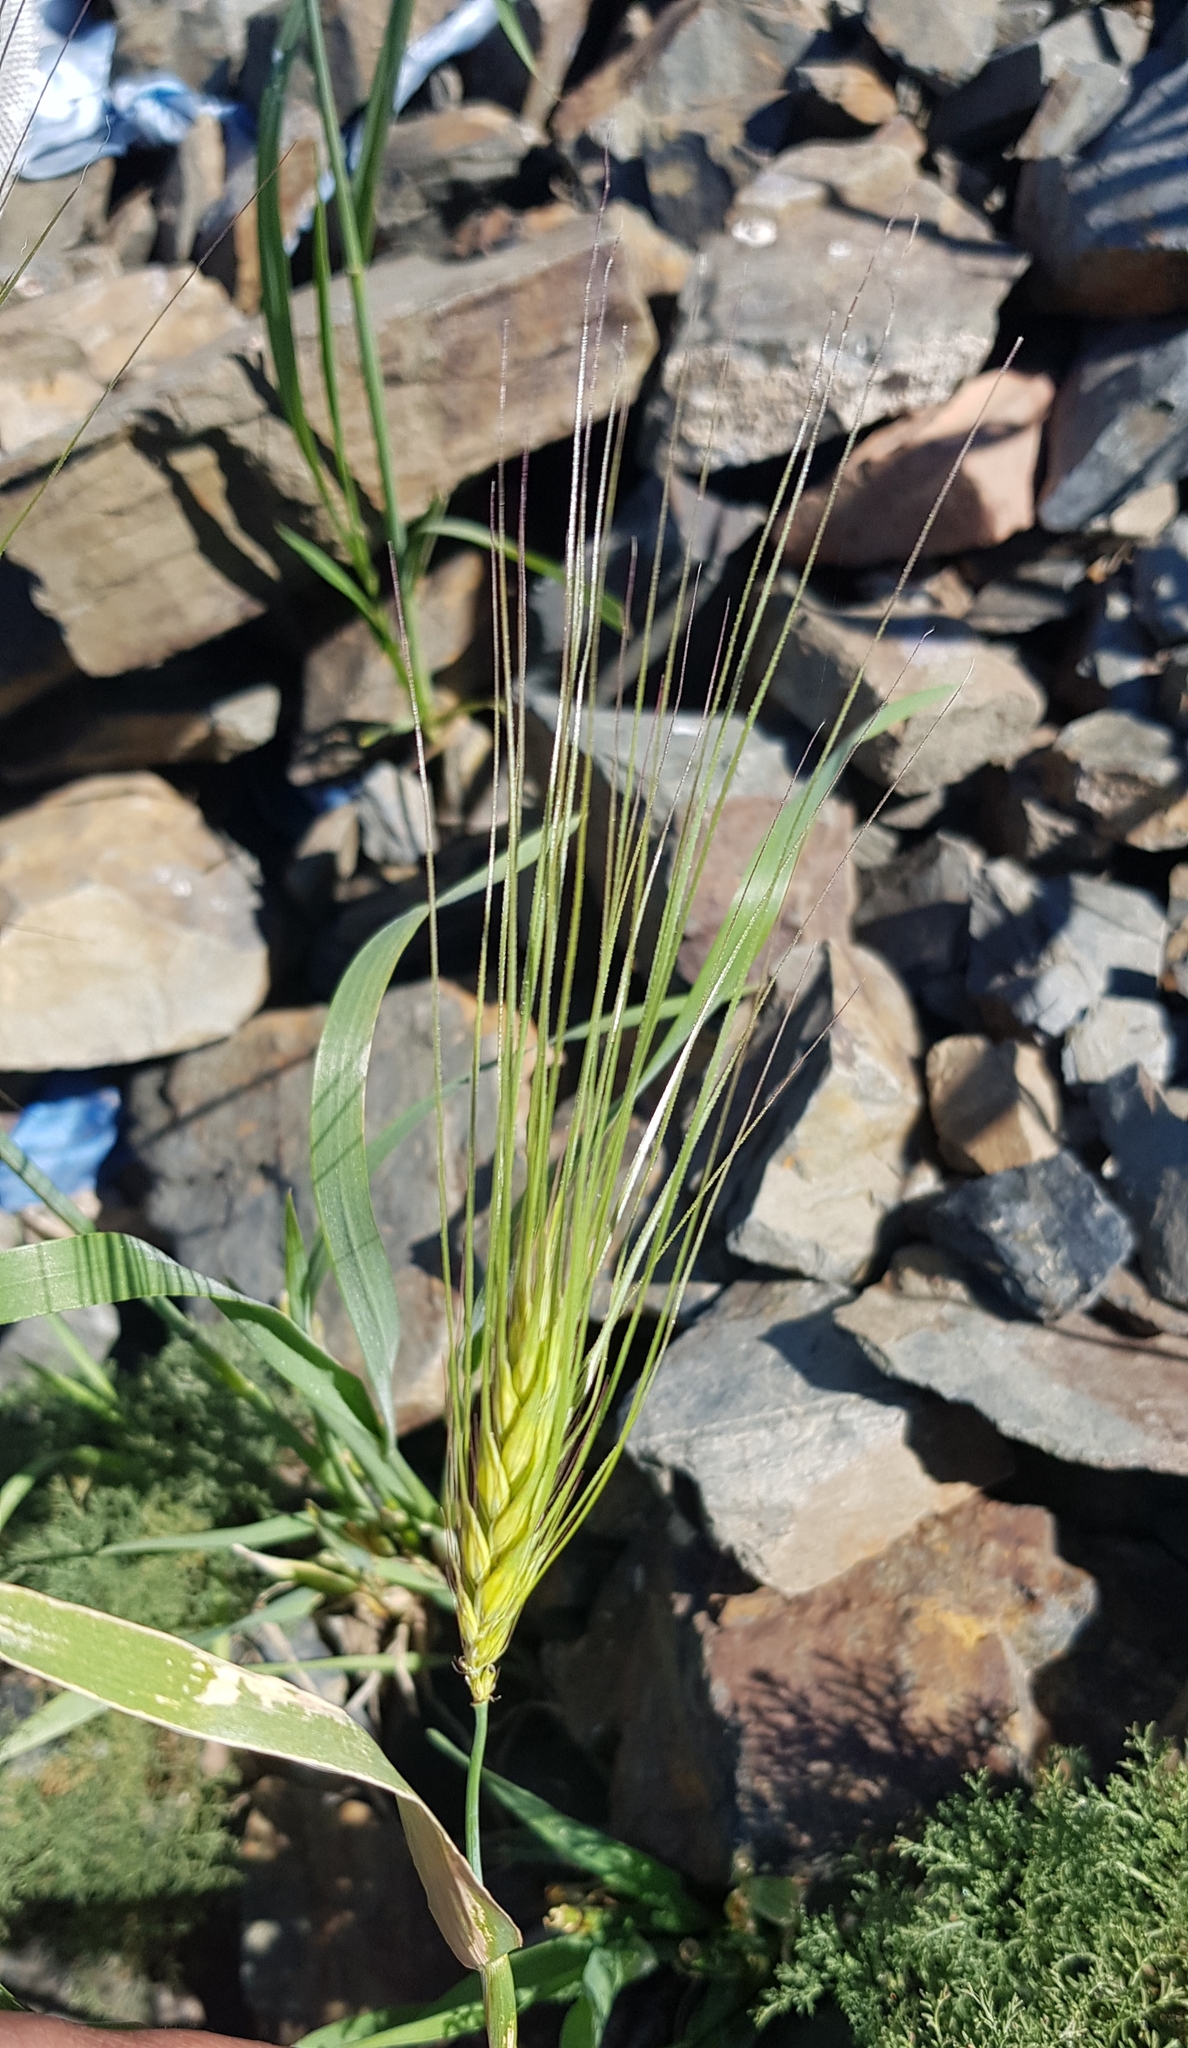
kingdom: Plantae
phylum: Tracheophyta
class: Liliopsida
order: Poales
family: Poaceae
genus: Hordeum
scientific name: Hordeum vulgare
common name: Common barley
